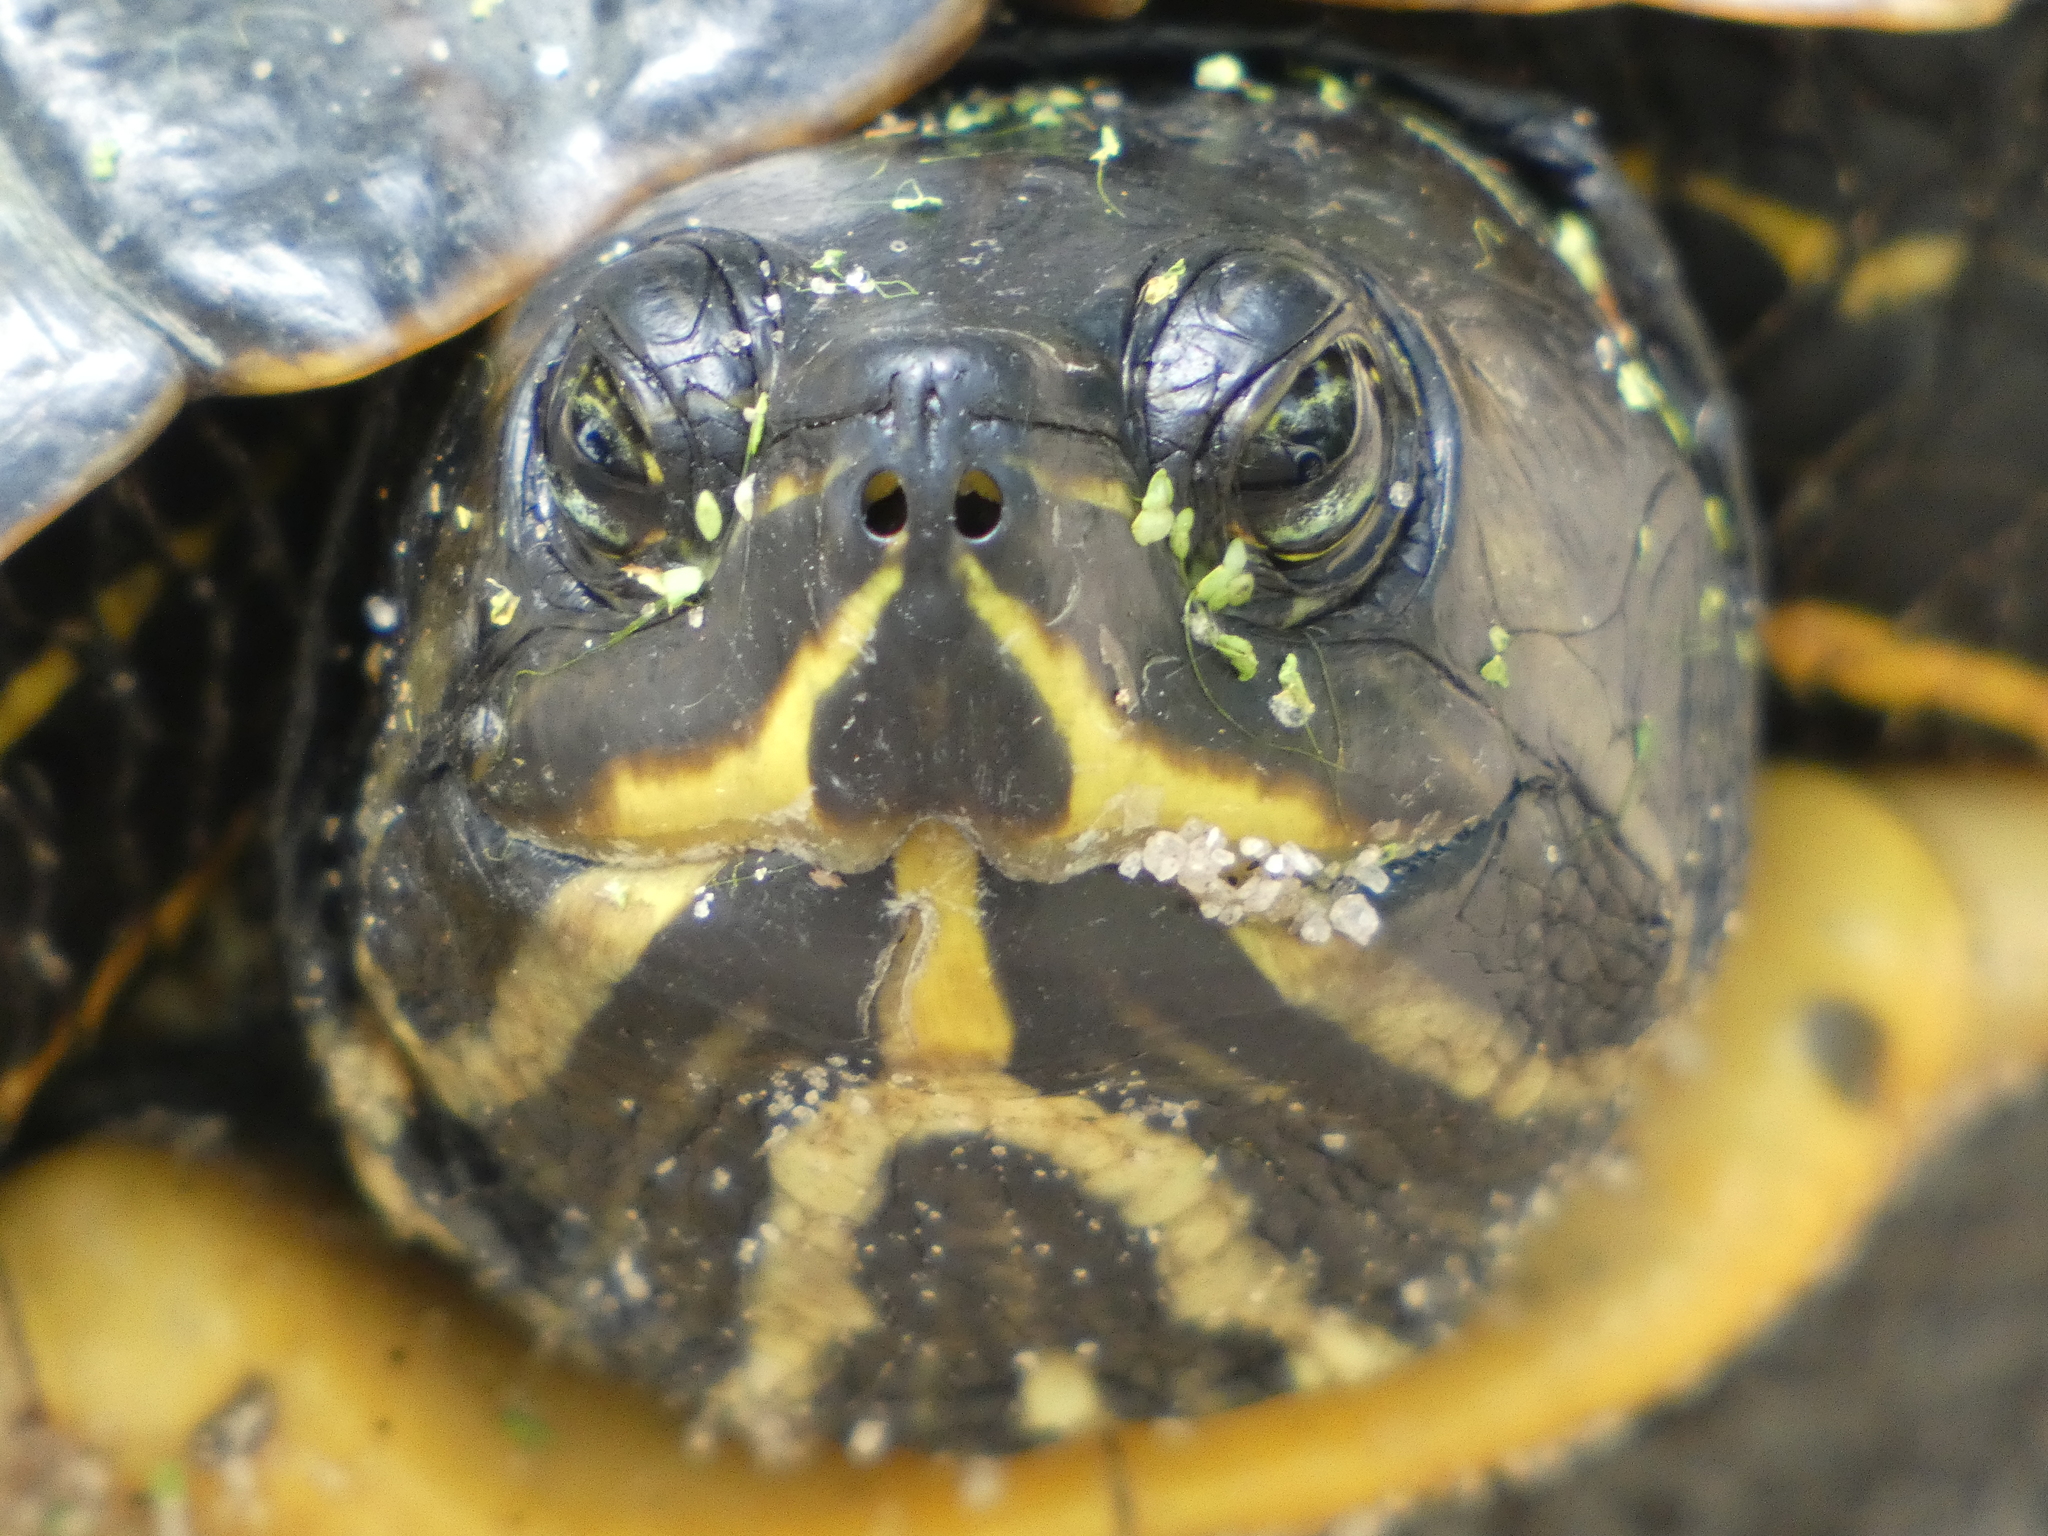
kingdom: Animalia
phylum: Chordata
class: Testudines
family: Emydidae
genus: Trachemys
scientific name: Trachemys scripta
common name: Slider
